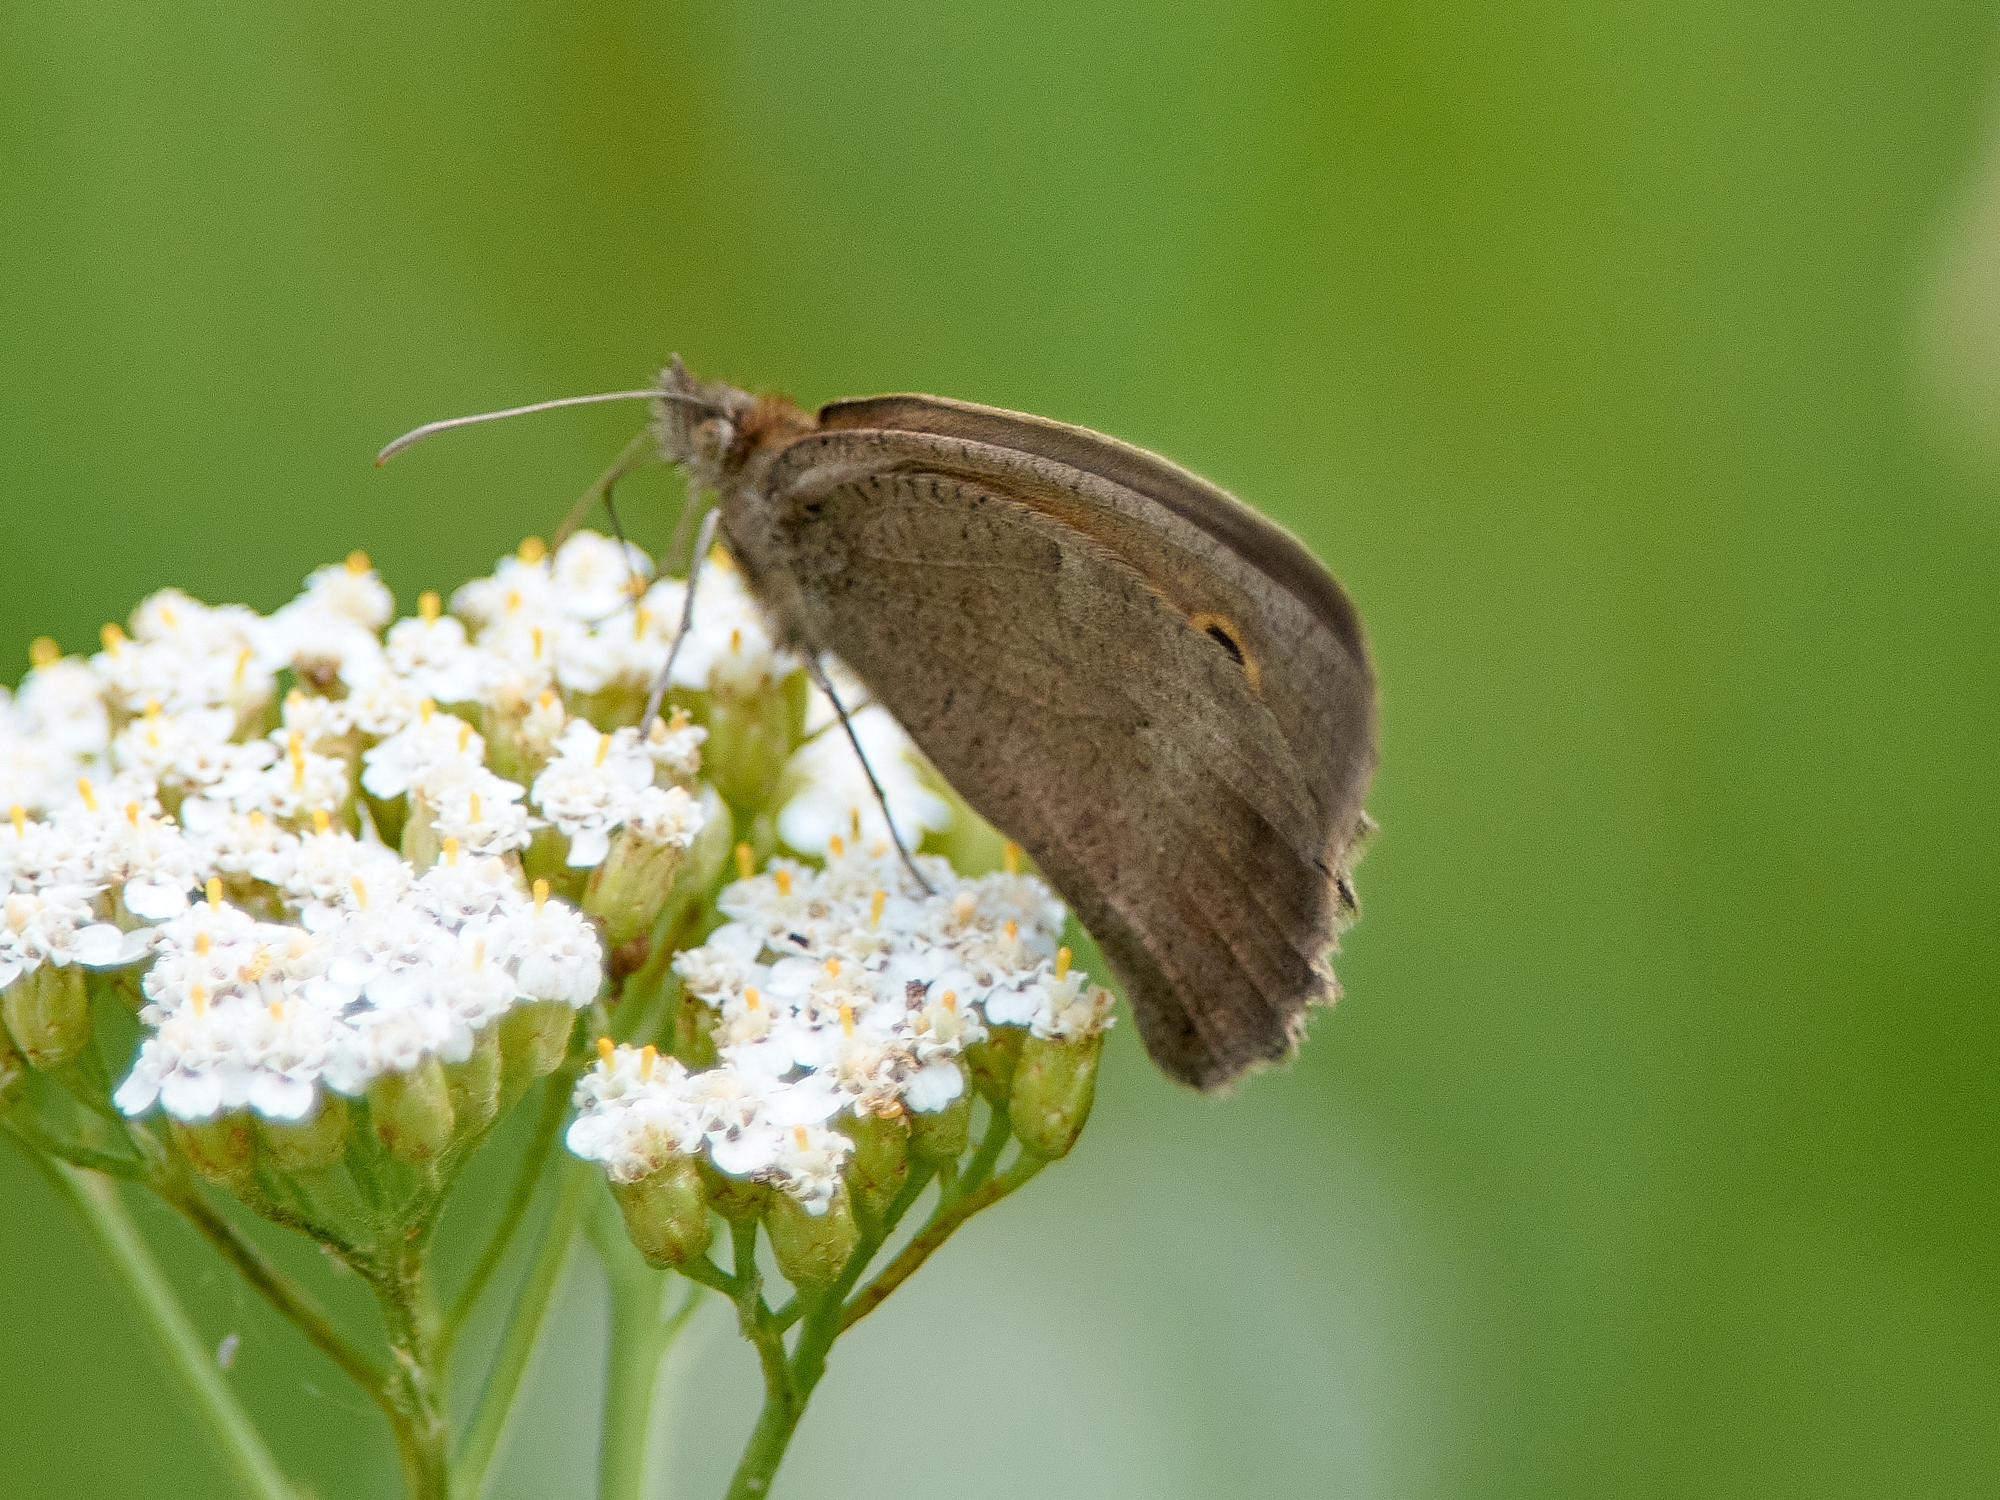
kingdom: Animalia
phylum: Arthropoda
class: Insecta
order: Lepidoptera
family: Nymphalidae
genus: Hyponephele
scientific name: Hyponephele lycaon
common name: Dusky meadow brown
